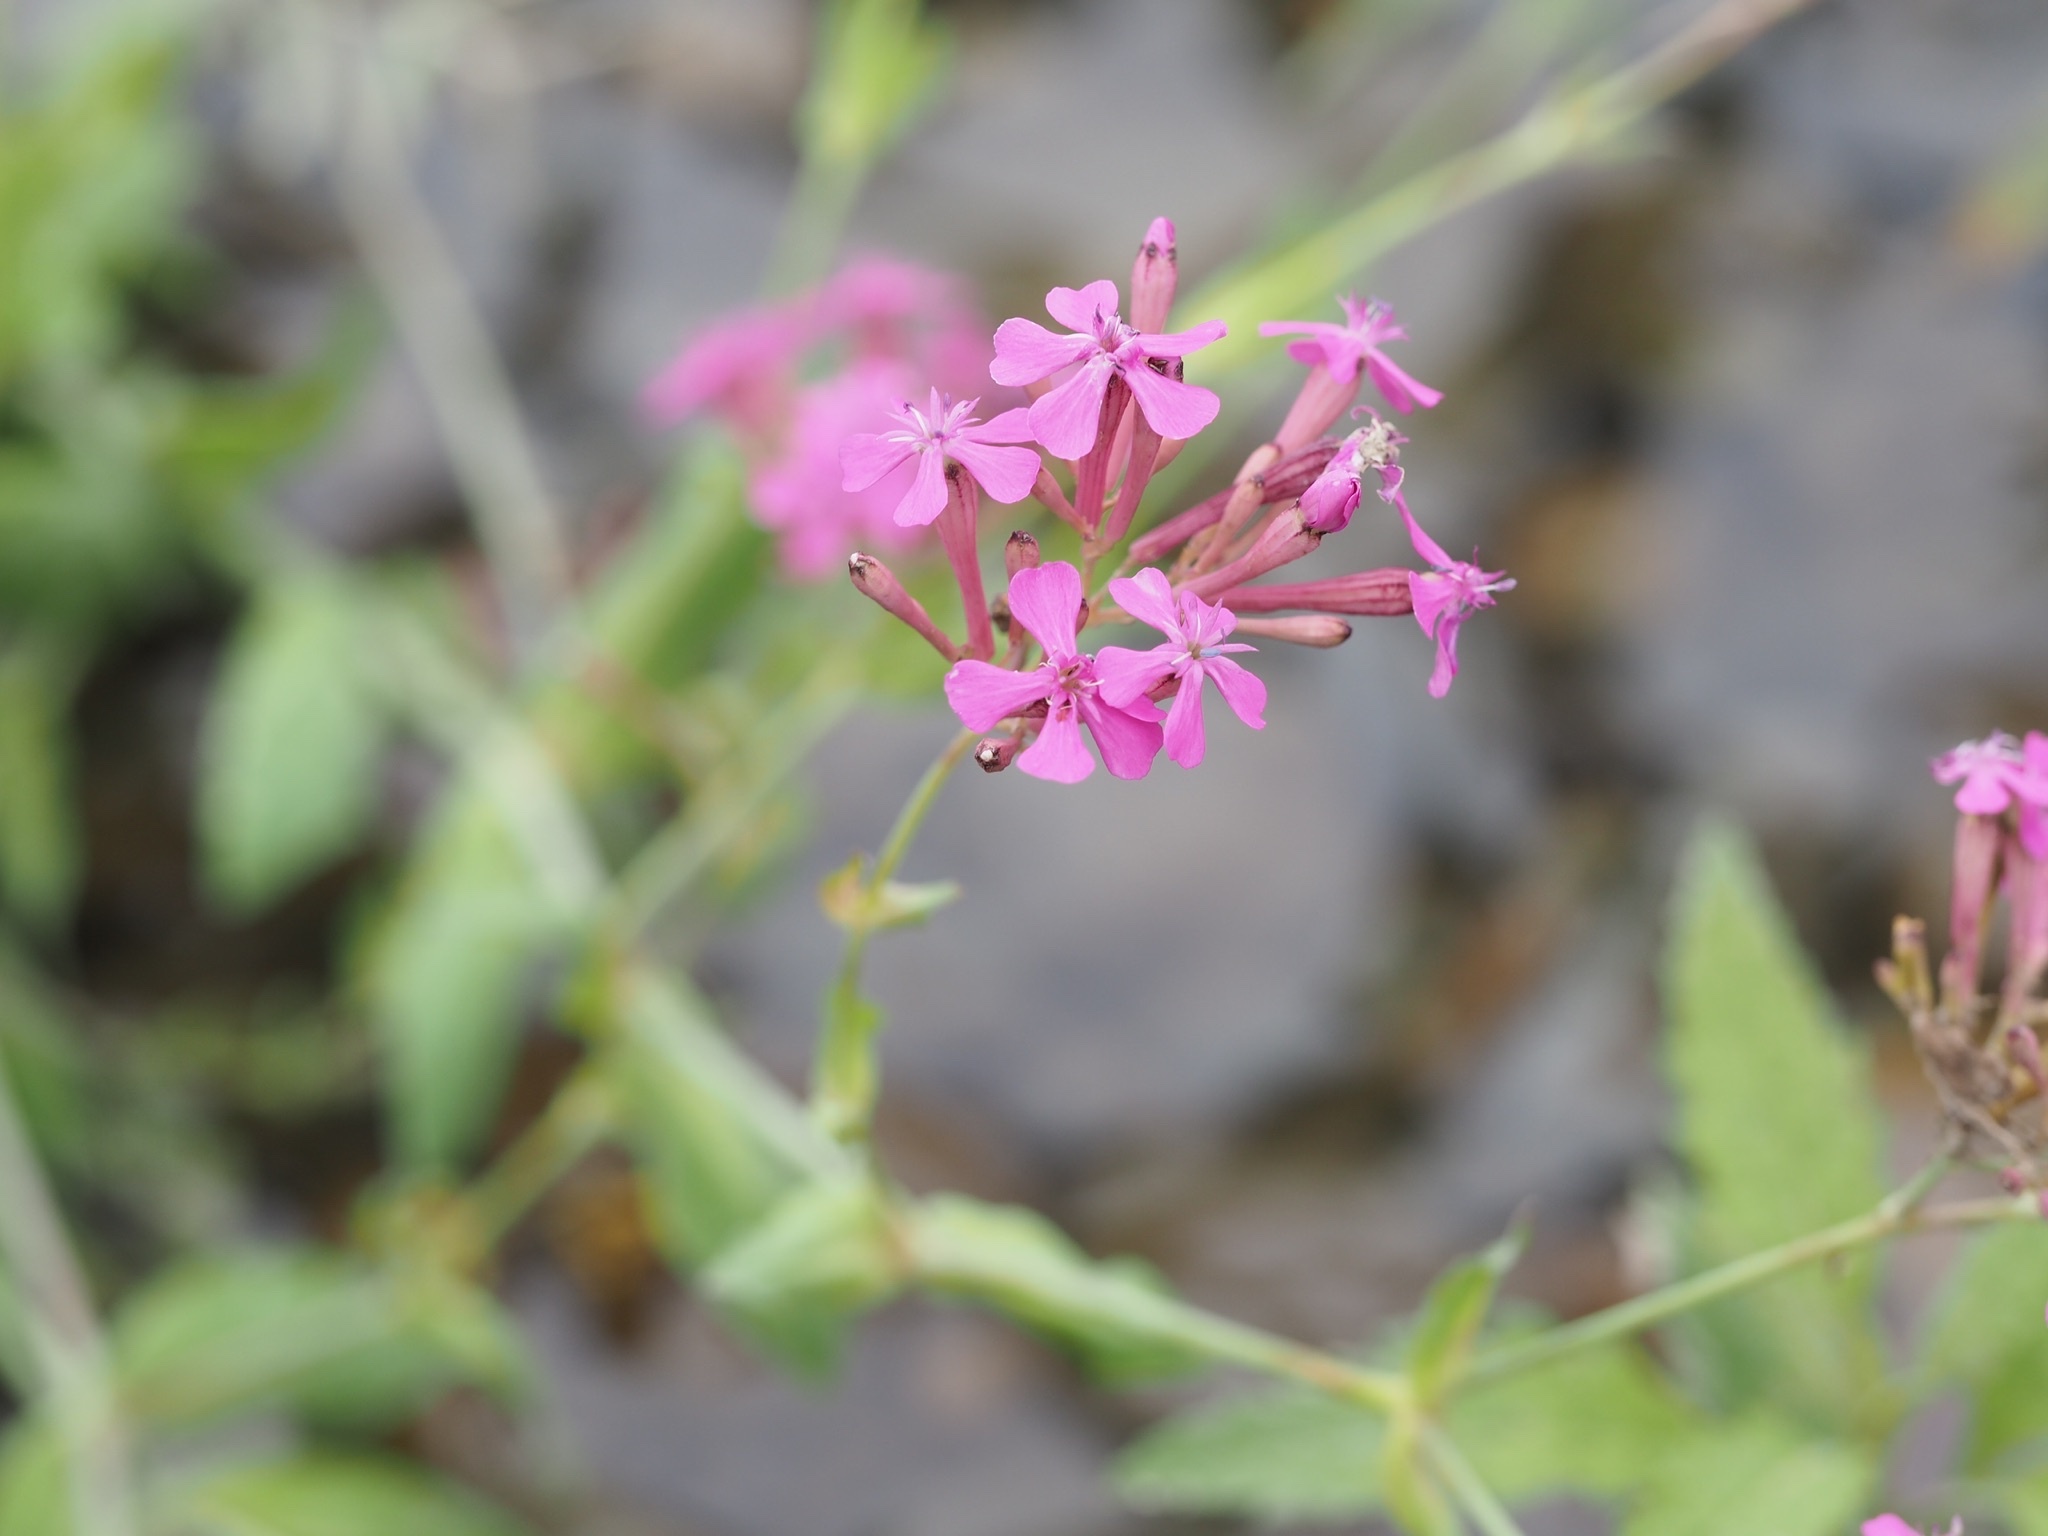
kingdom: Plantae
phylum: Tracheophyta
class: Magnoliopsida
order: Caryophyllales
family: Caryophyllaceae
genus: Atocion
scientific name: Atocion armeria
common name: Sweet william catchfly
